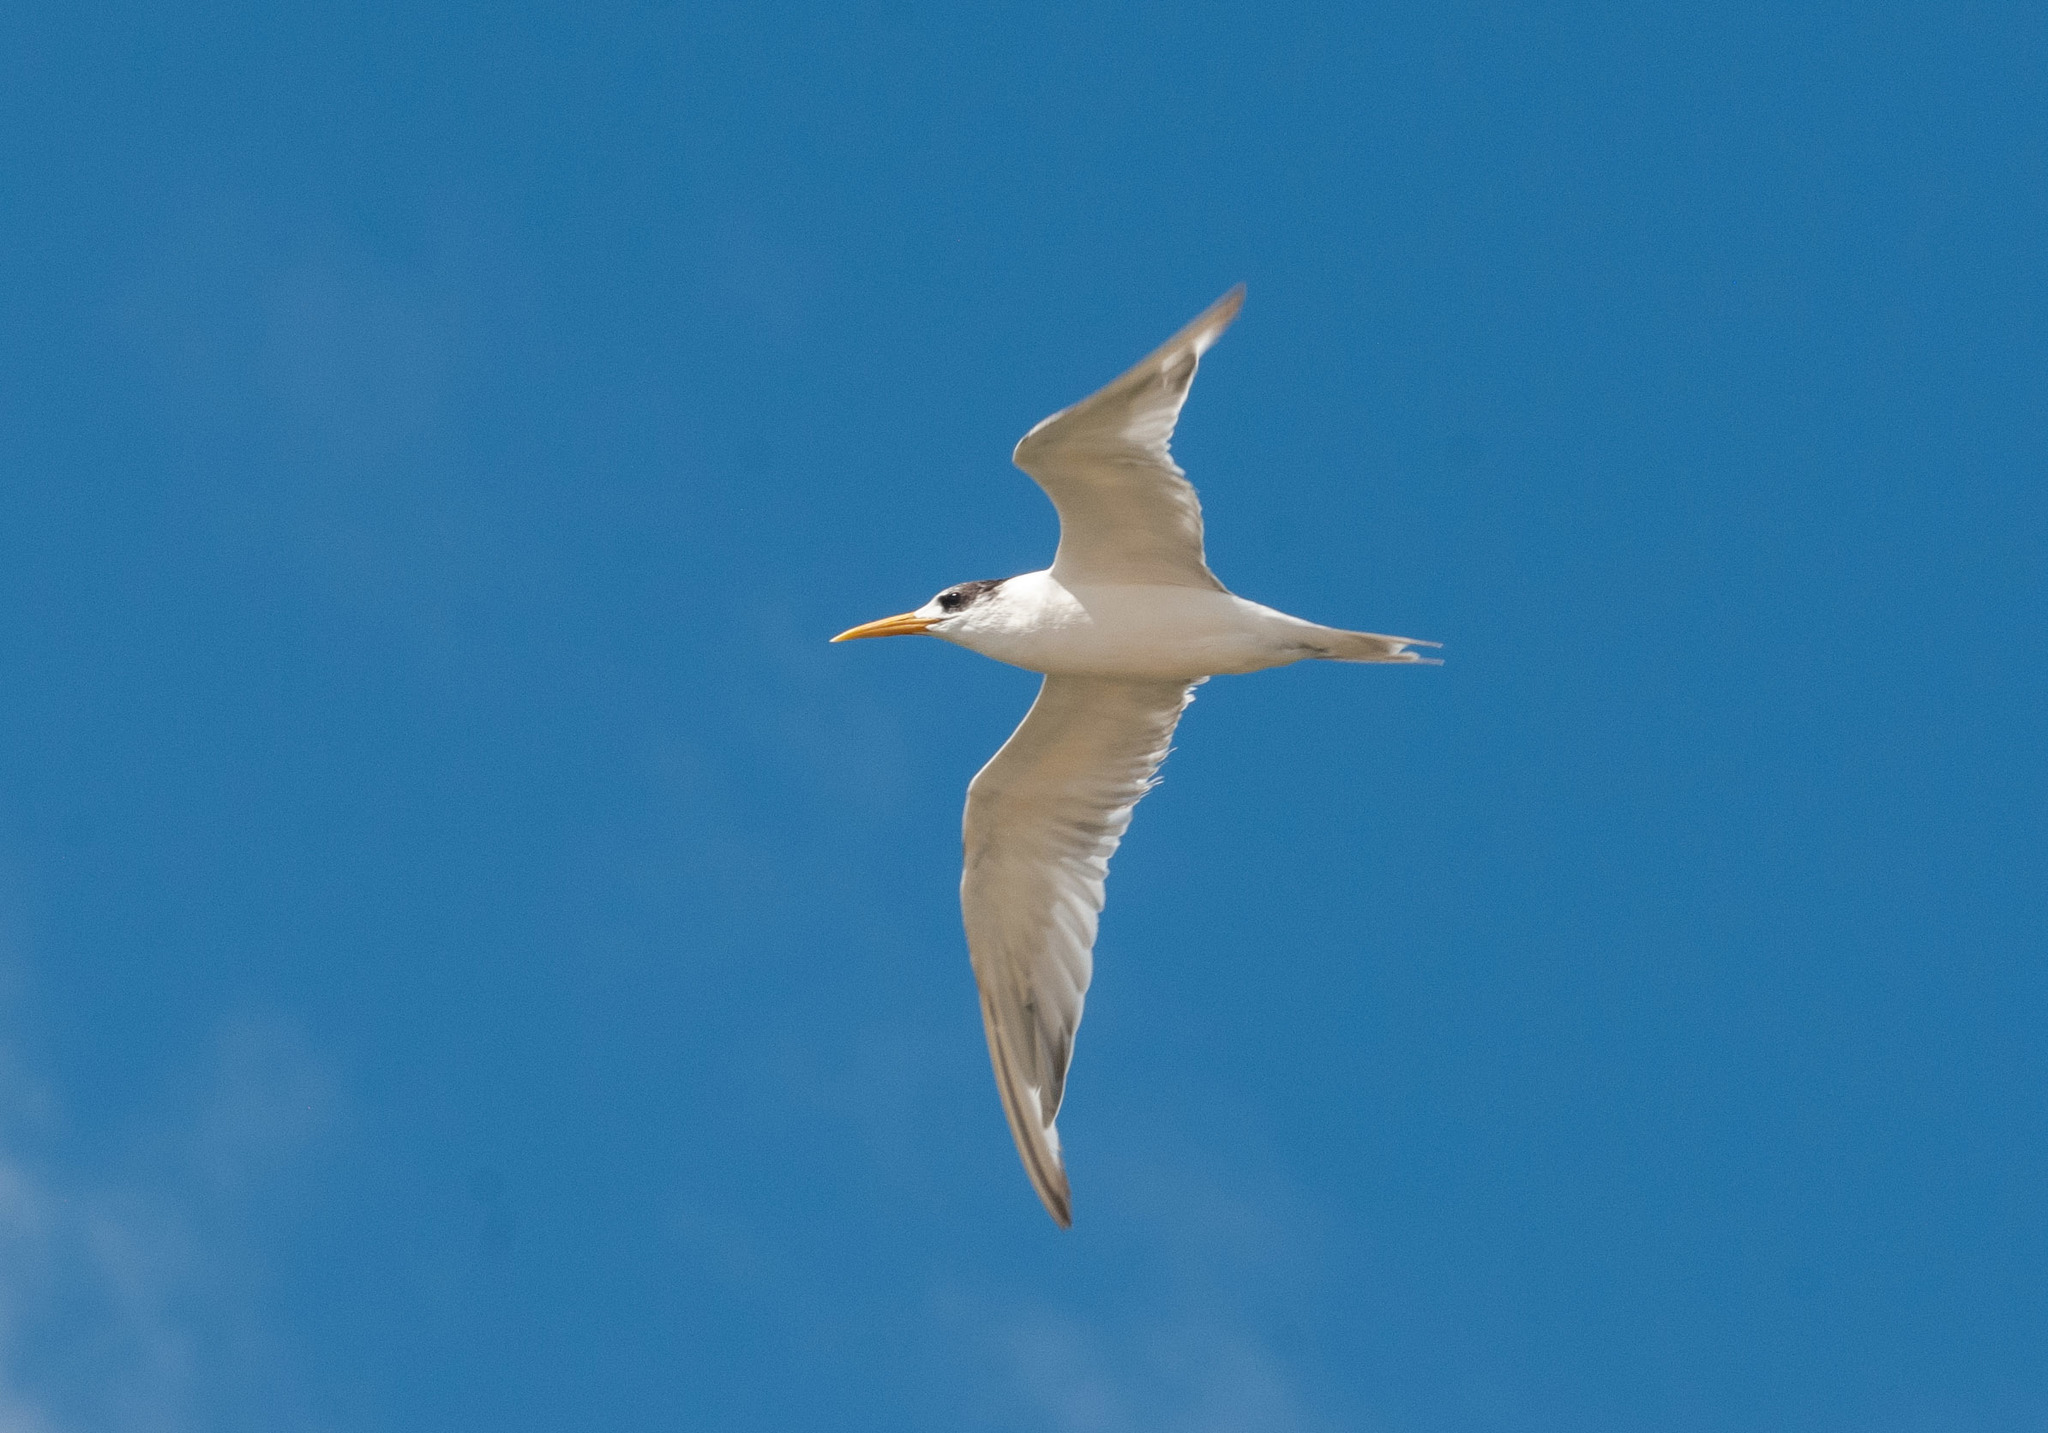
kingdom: Animalia
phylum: Chordata
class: Aves
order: Charadriiformes
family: Laridae
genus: Thalasseus
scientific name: Thalasseus bergii
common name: Greater crested tern
